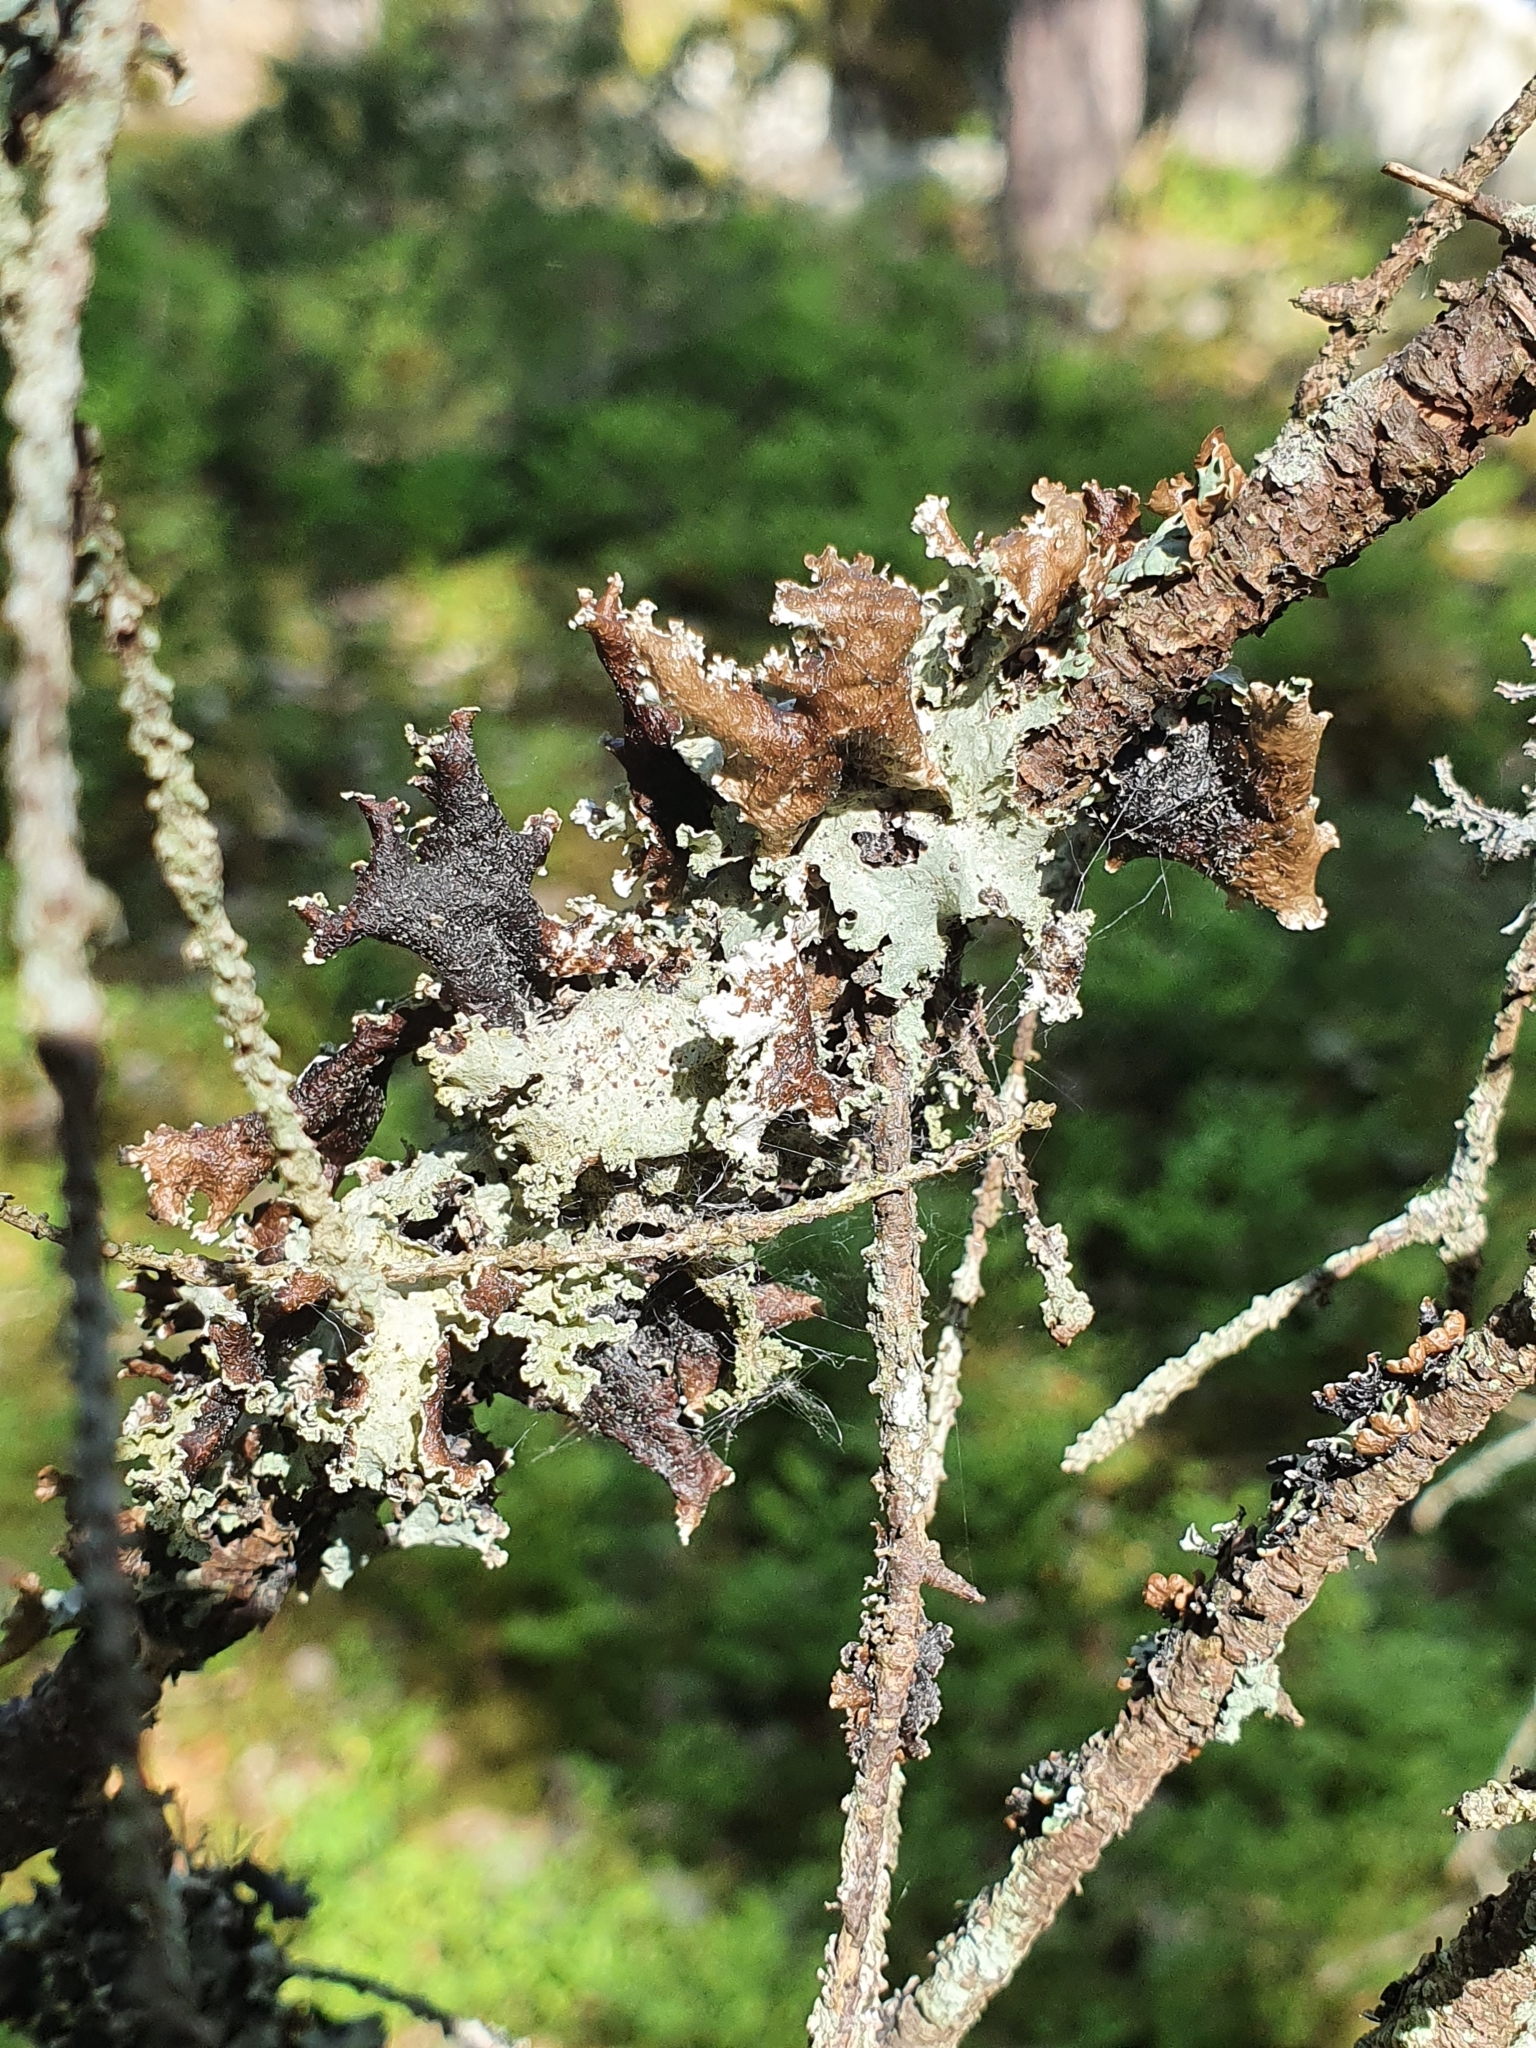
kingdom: Fungi
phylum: Ascomycota
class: Lecanoromycetes
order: Lecanorales
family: Parmeliaceae
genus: Platismatia
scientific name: Platismatia glauca
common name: Varied rag lichen
